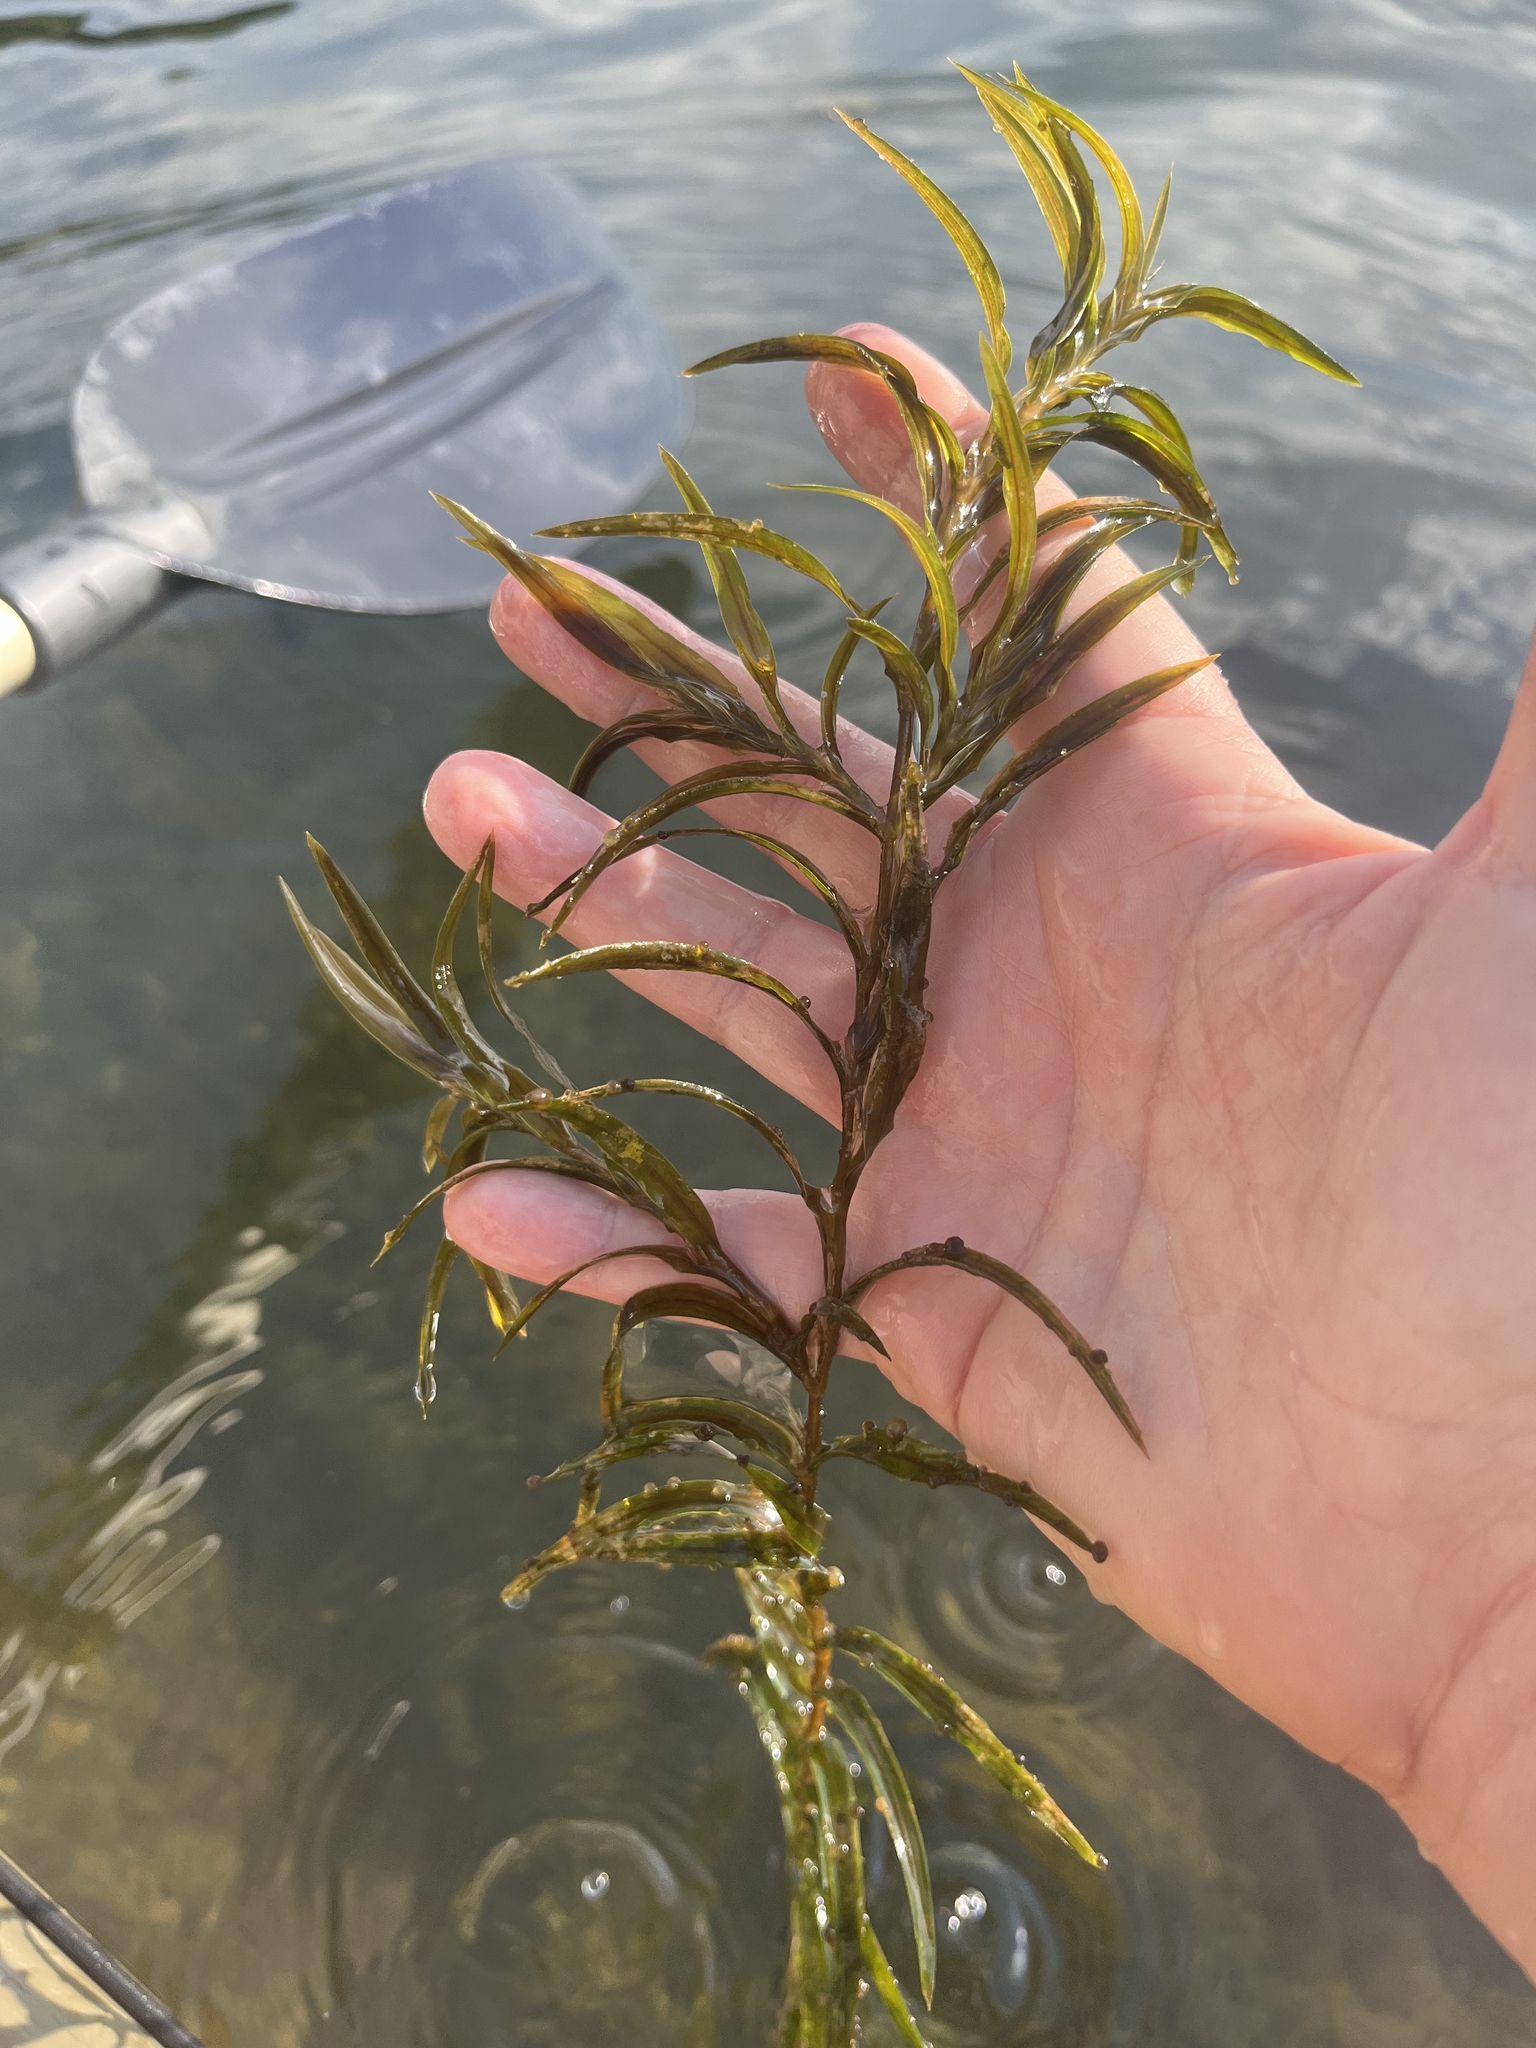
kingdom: Plantae
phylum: Tracheophyta
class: Liliopsida
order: Alismatales
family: Potamogetonaceae
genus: Potamogeton
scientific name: Potamogeton robbinsii
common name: Fern pondweed
